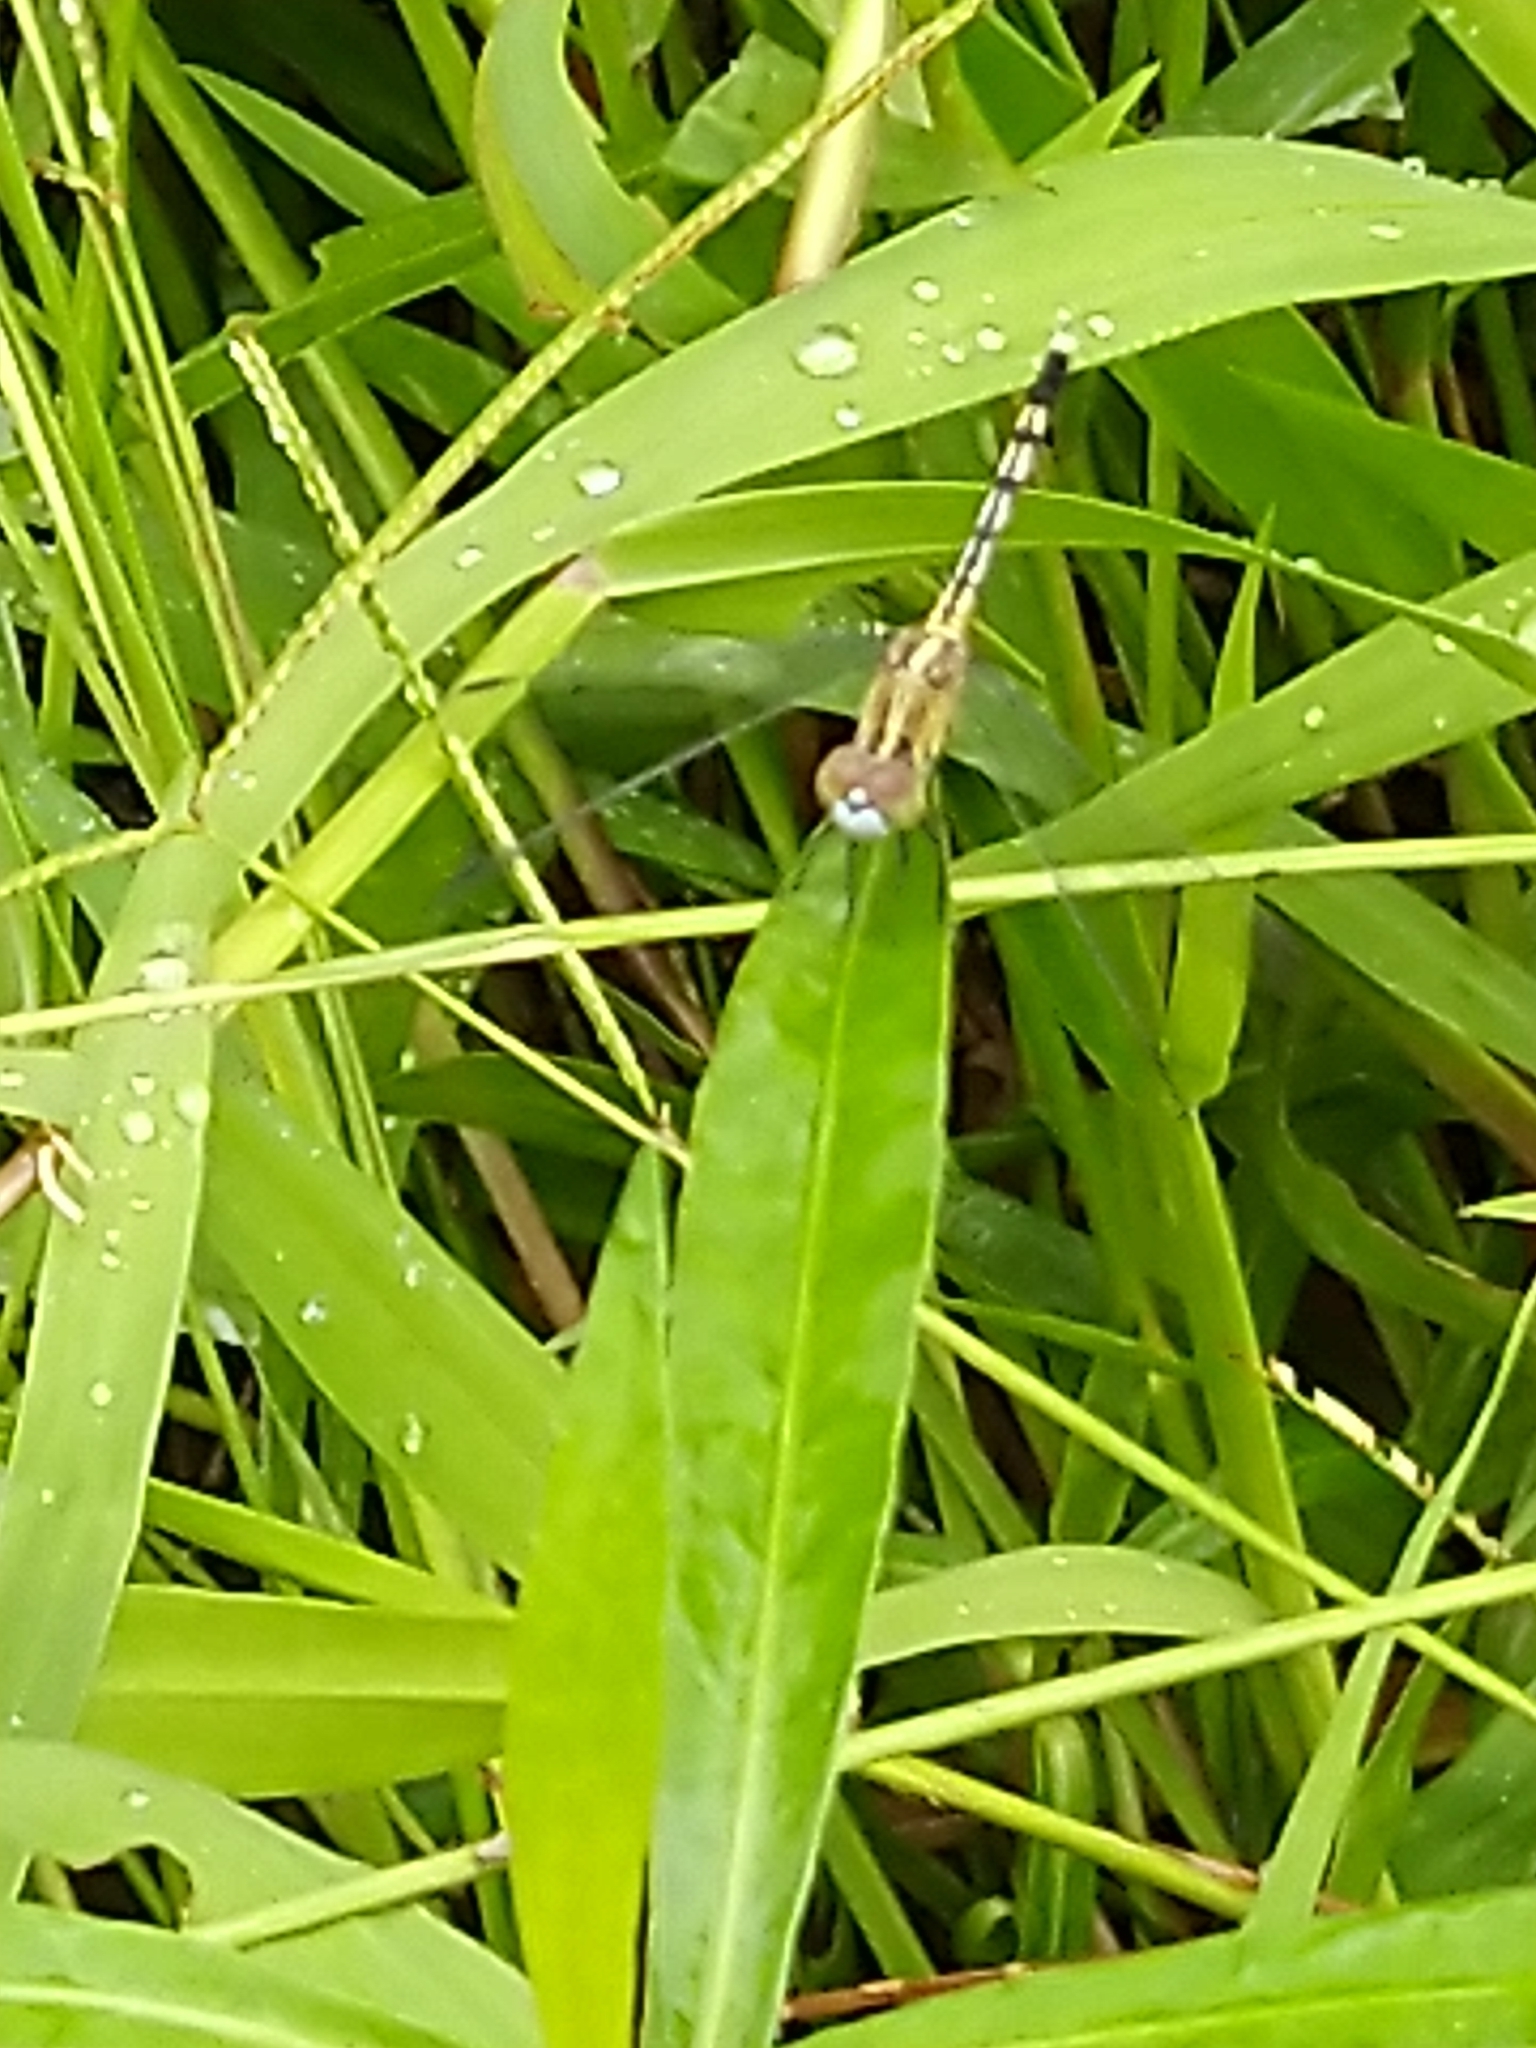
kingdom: Animalia
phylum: Arthropoda
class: Insecta
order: Odonata
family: Libellulidae
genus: Diplacodes
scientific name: Diplacodes trivialis
